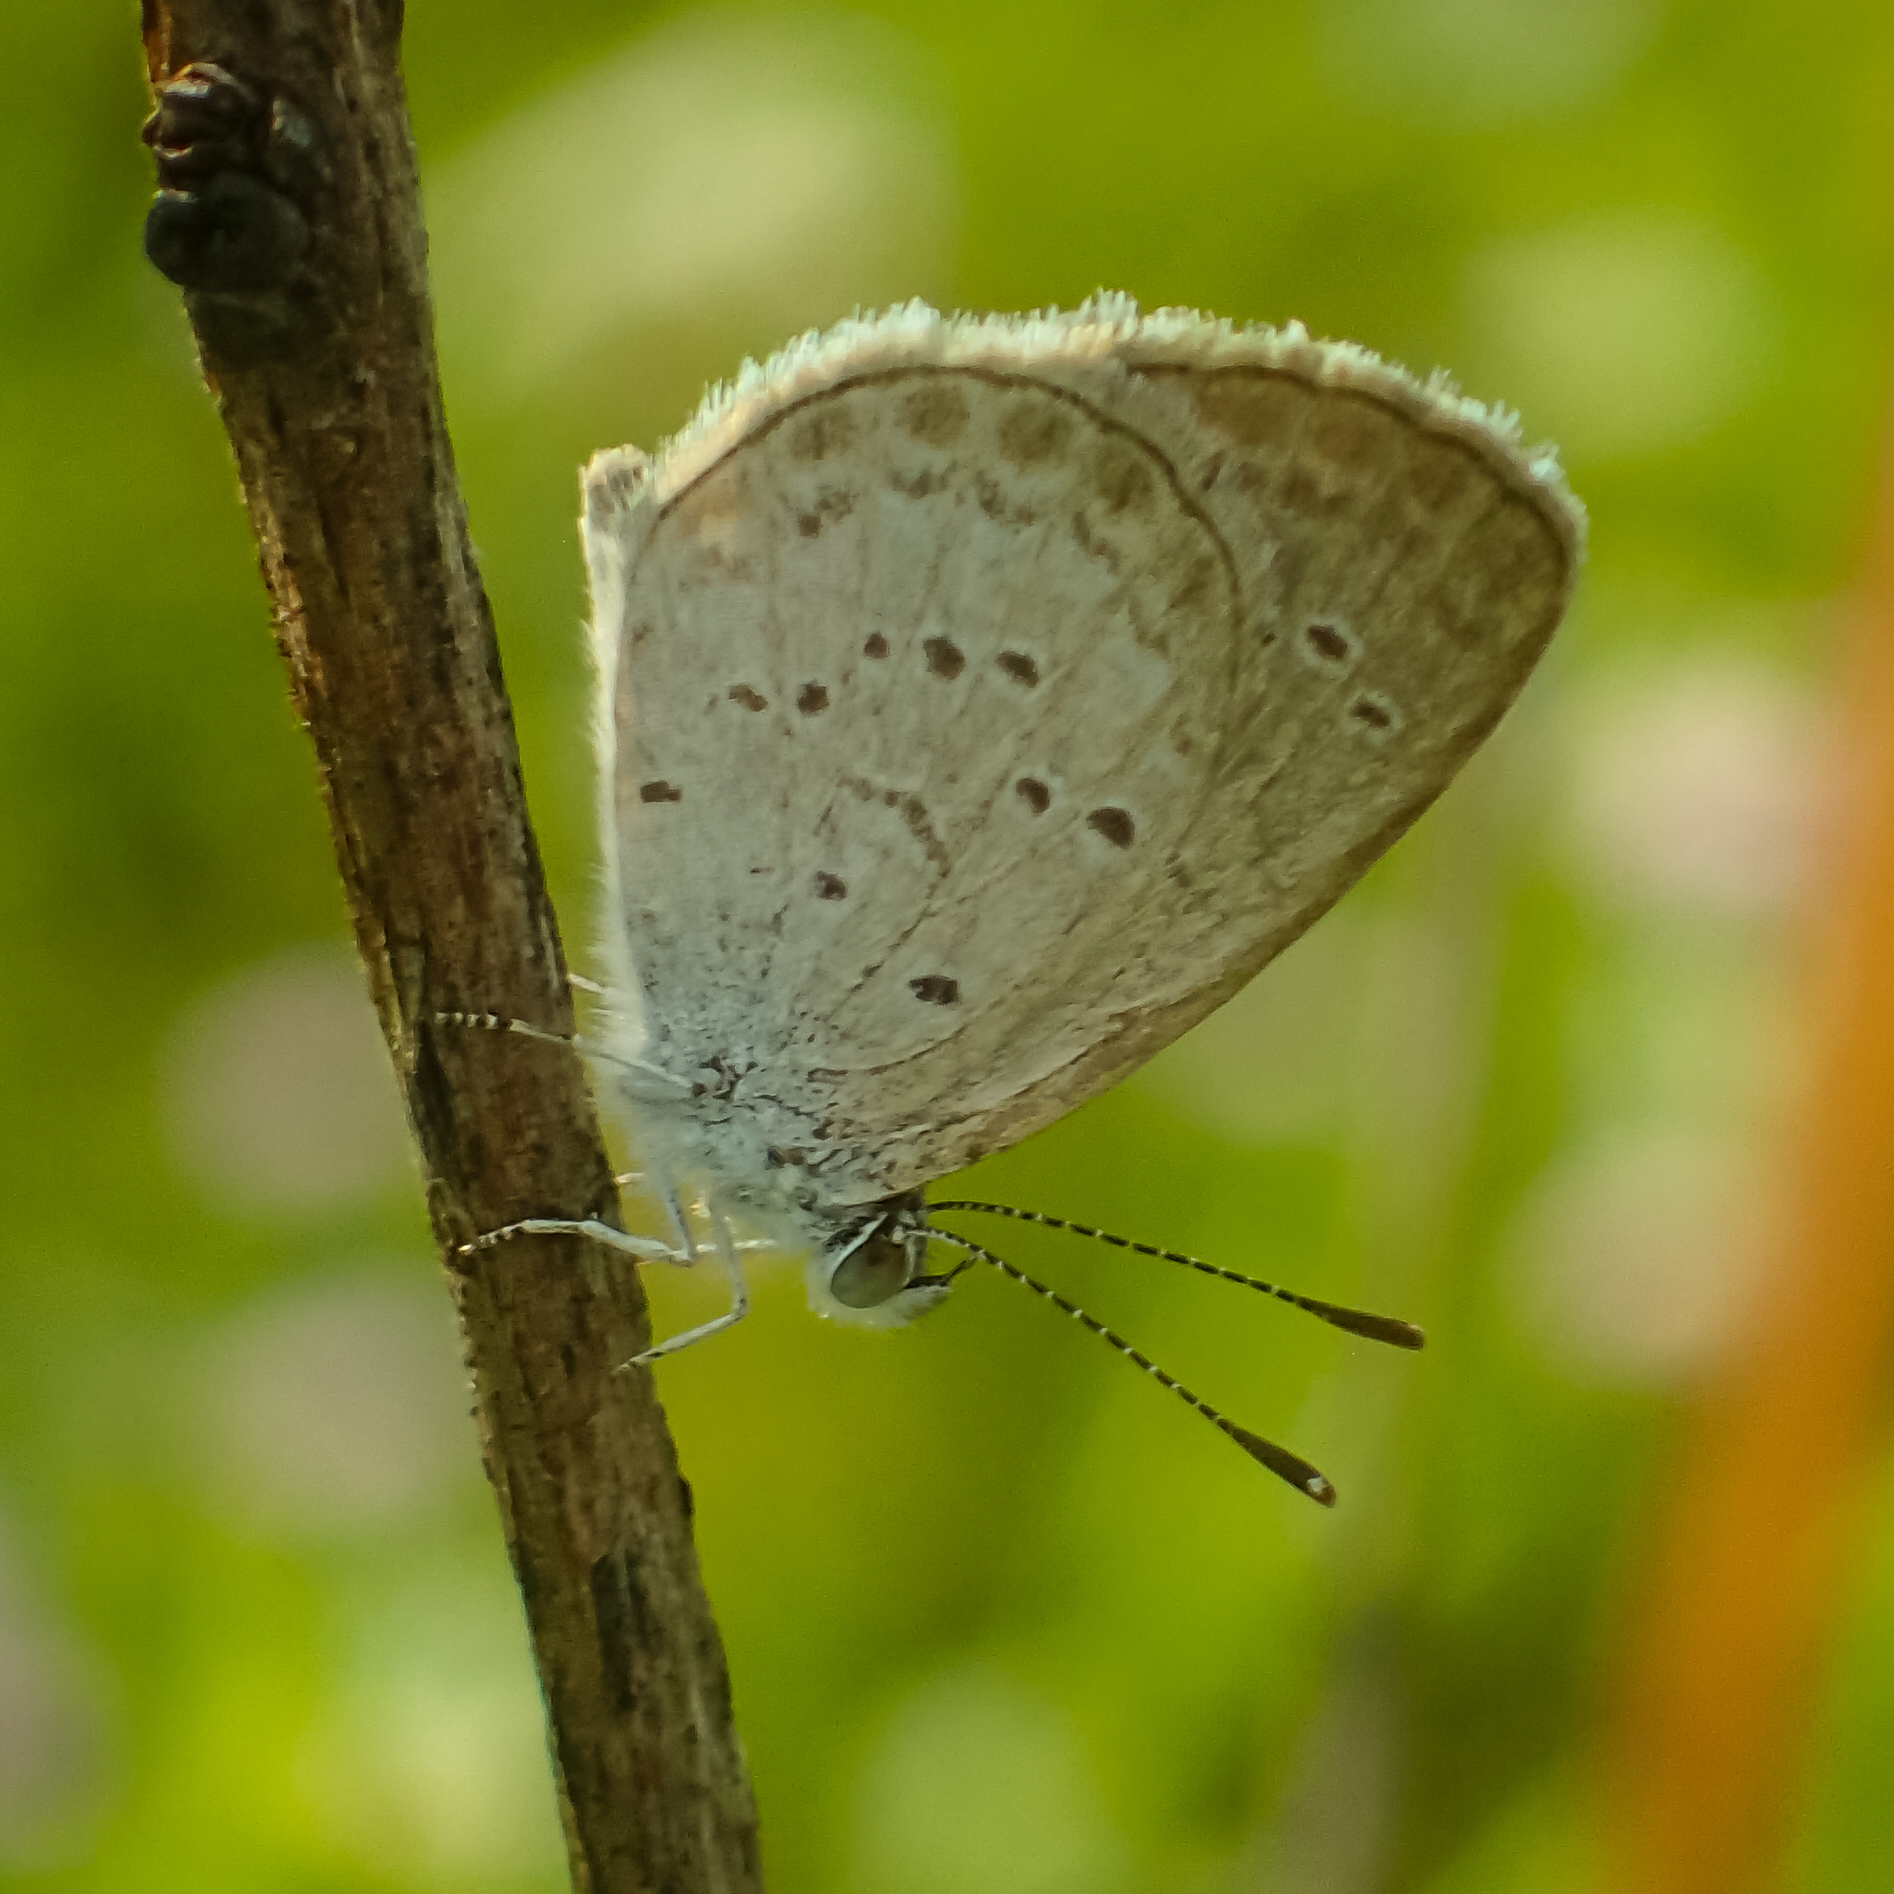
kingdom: Animalia
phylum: Arthropoda
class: Insecta
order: Lepidoptera
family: Lycaenidae
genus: Zizina
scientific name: Zizina otis
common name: Lesser grass blue
